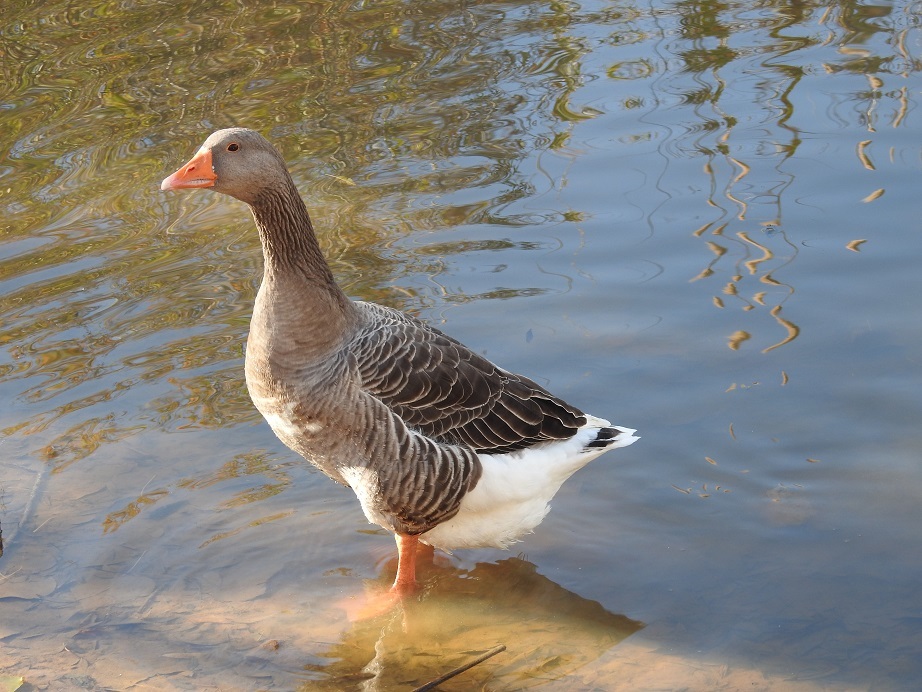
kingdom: Animalia
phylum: Chordata
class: Aves
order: Anseriformes
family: Anatidae
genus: Anser
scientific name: Anser anser
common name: Greylag goose
